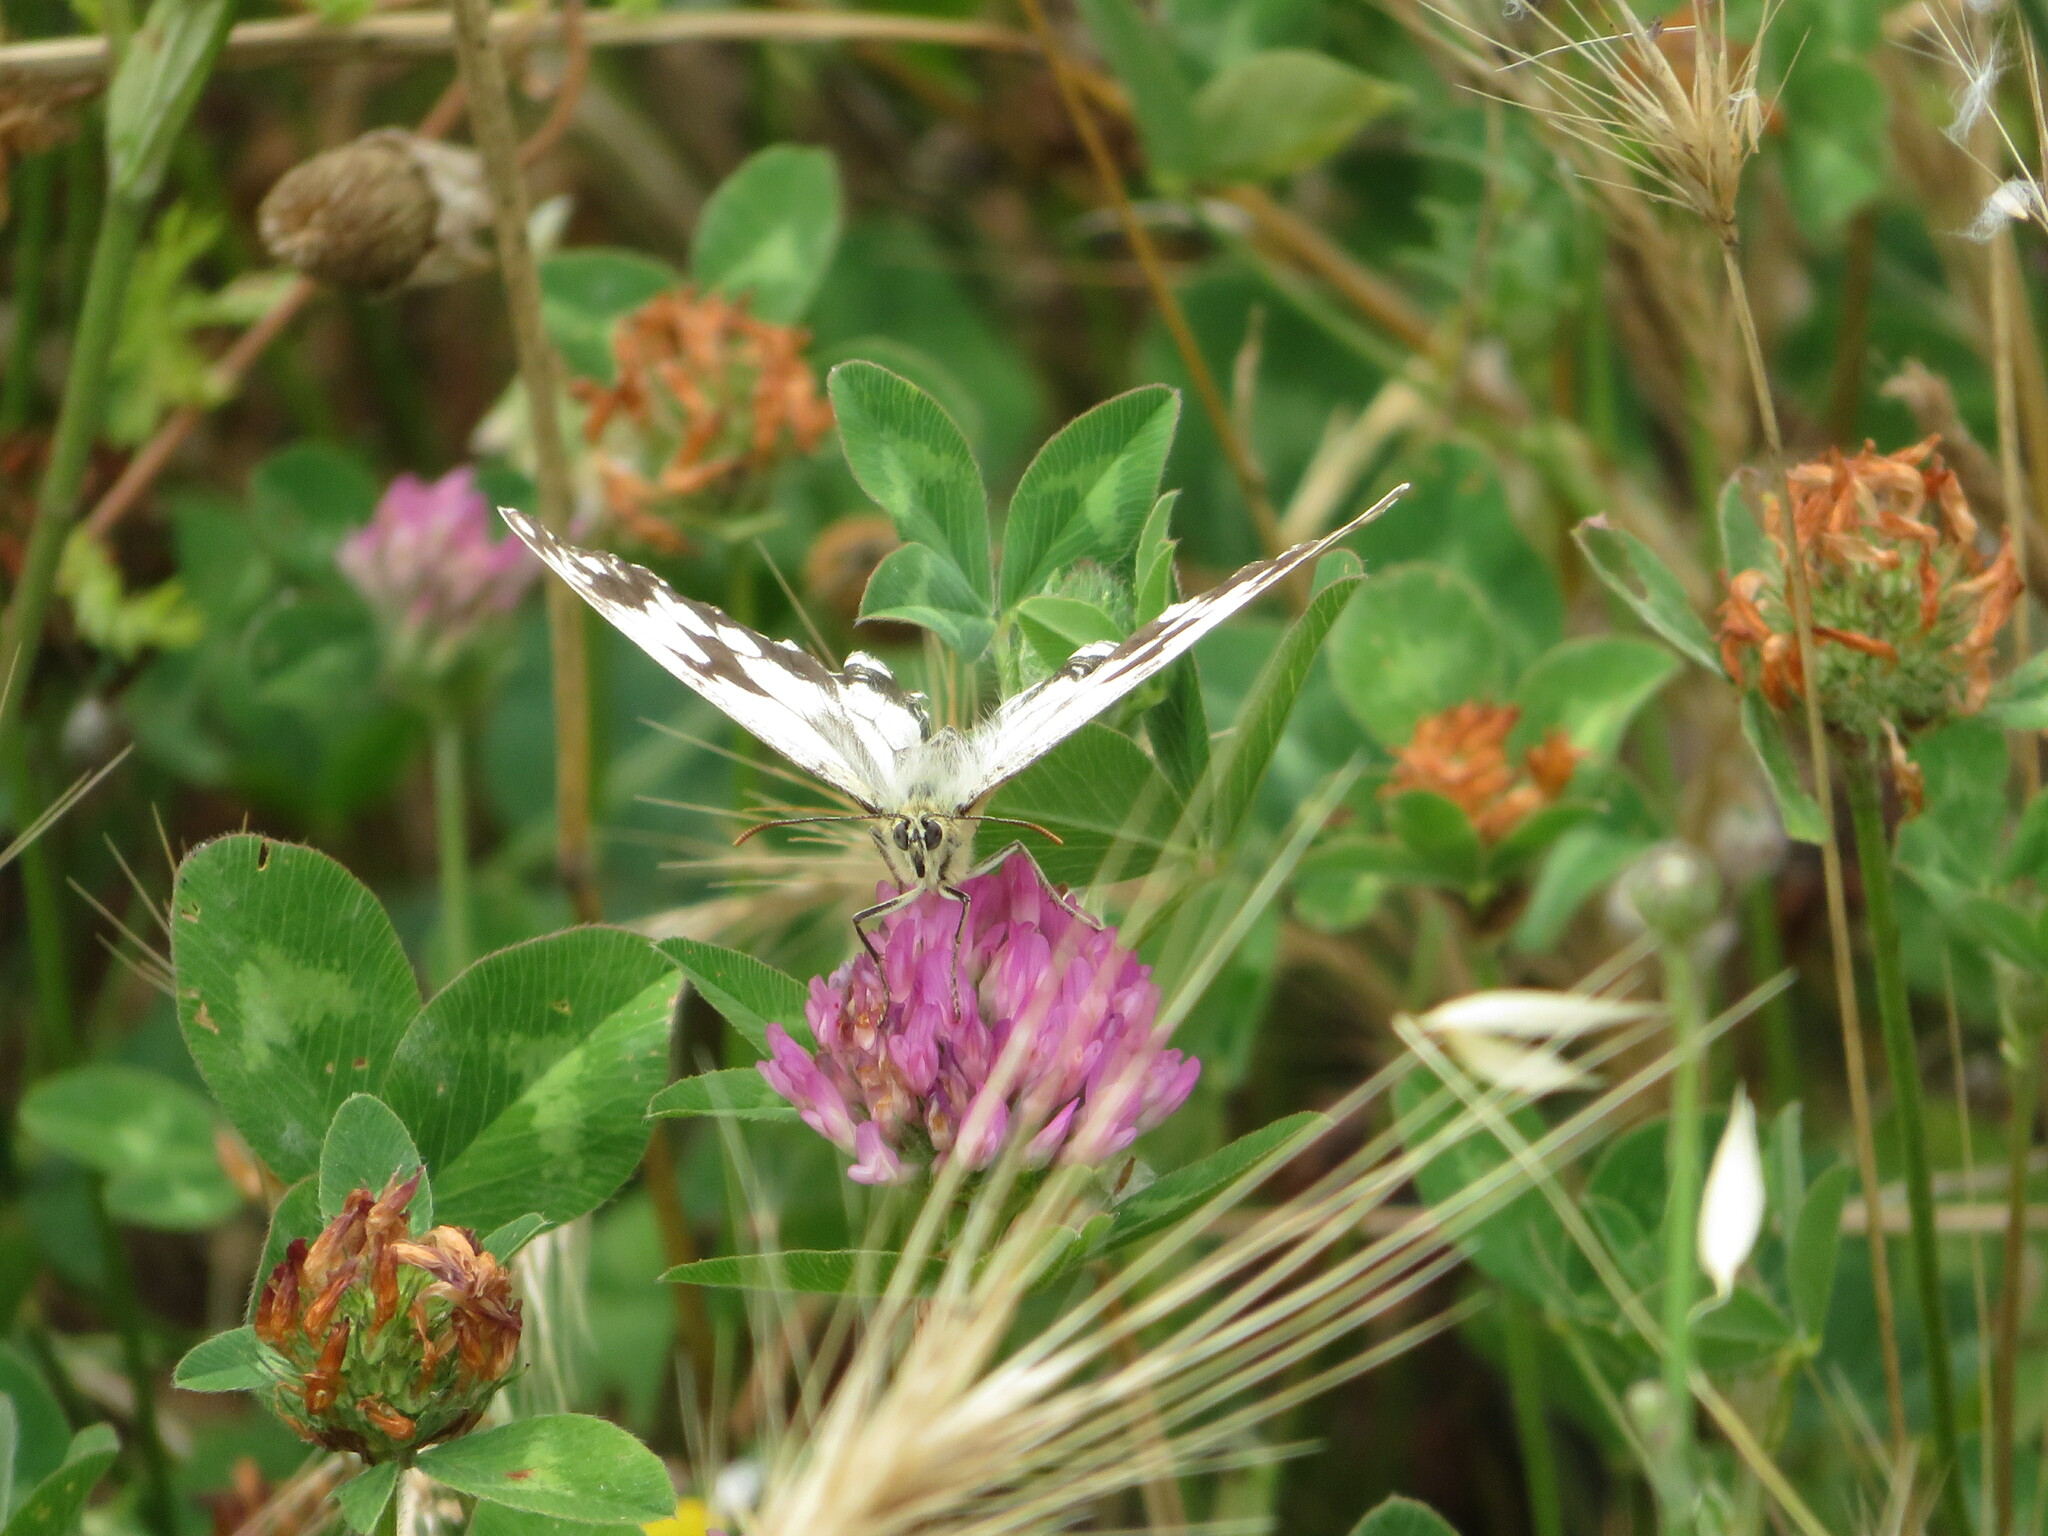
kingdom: Animalia
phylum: Arthropoda
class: Insecta
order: Lepidoptera
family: Nymphalidae
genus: Melanargia
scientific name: Melanargia lachesis
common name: Iberian marbled white
